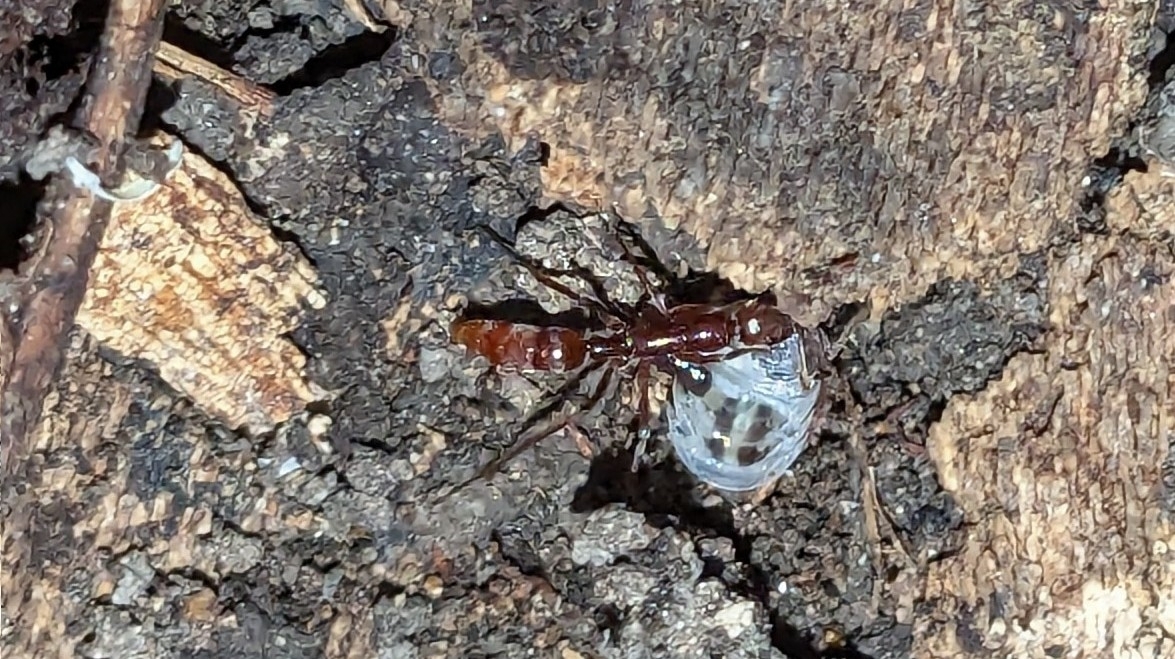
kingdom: Animalia
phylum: Arthropoda
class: Insecta
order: Hymenoptera
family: Formicidae
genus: Leptogenys
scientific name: Leptogenys elongata
